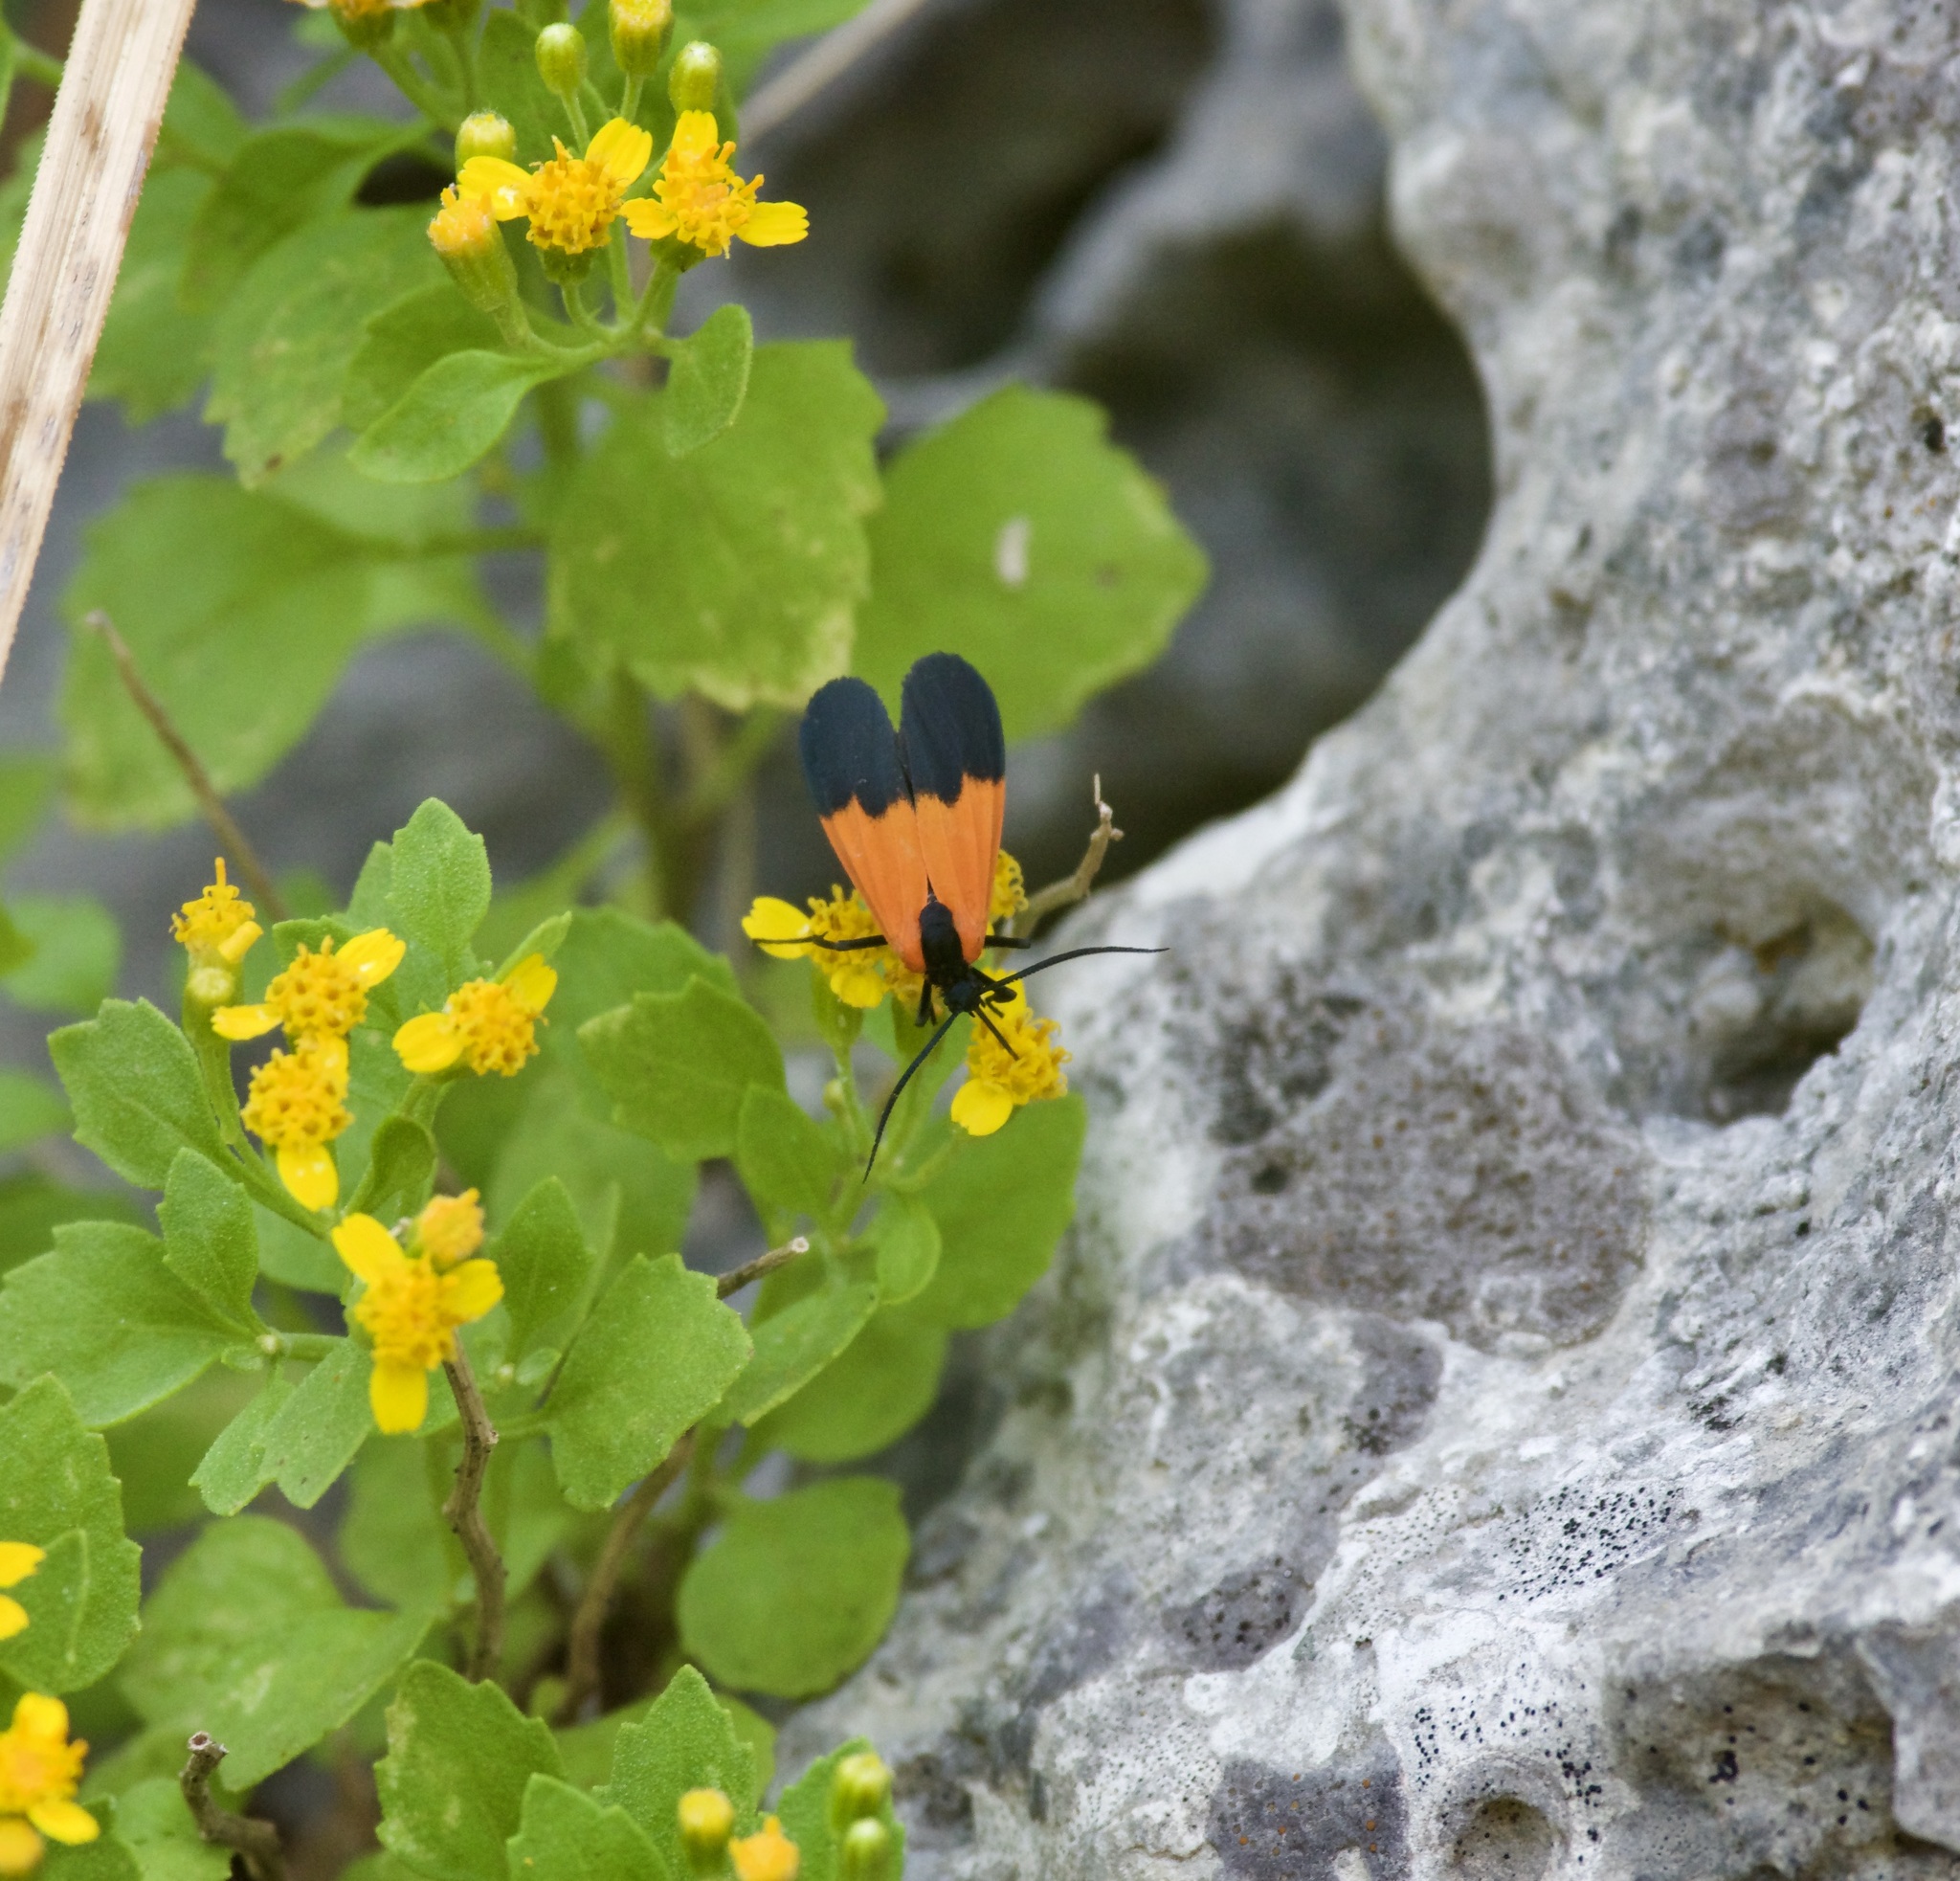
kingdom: Animalia
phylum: Arthropoda
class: Insecta
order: Lepidoptera
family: Erebidae
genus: Lycomorpha
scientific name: Lycomorpha pholus
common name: Black-and-yellow lichen moth
